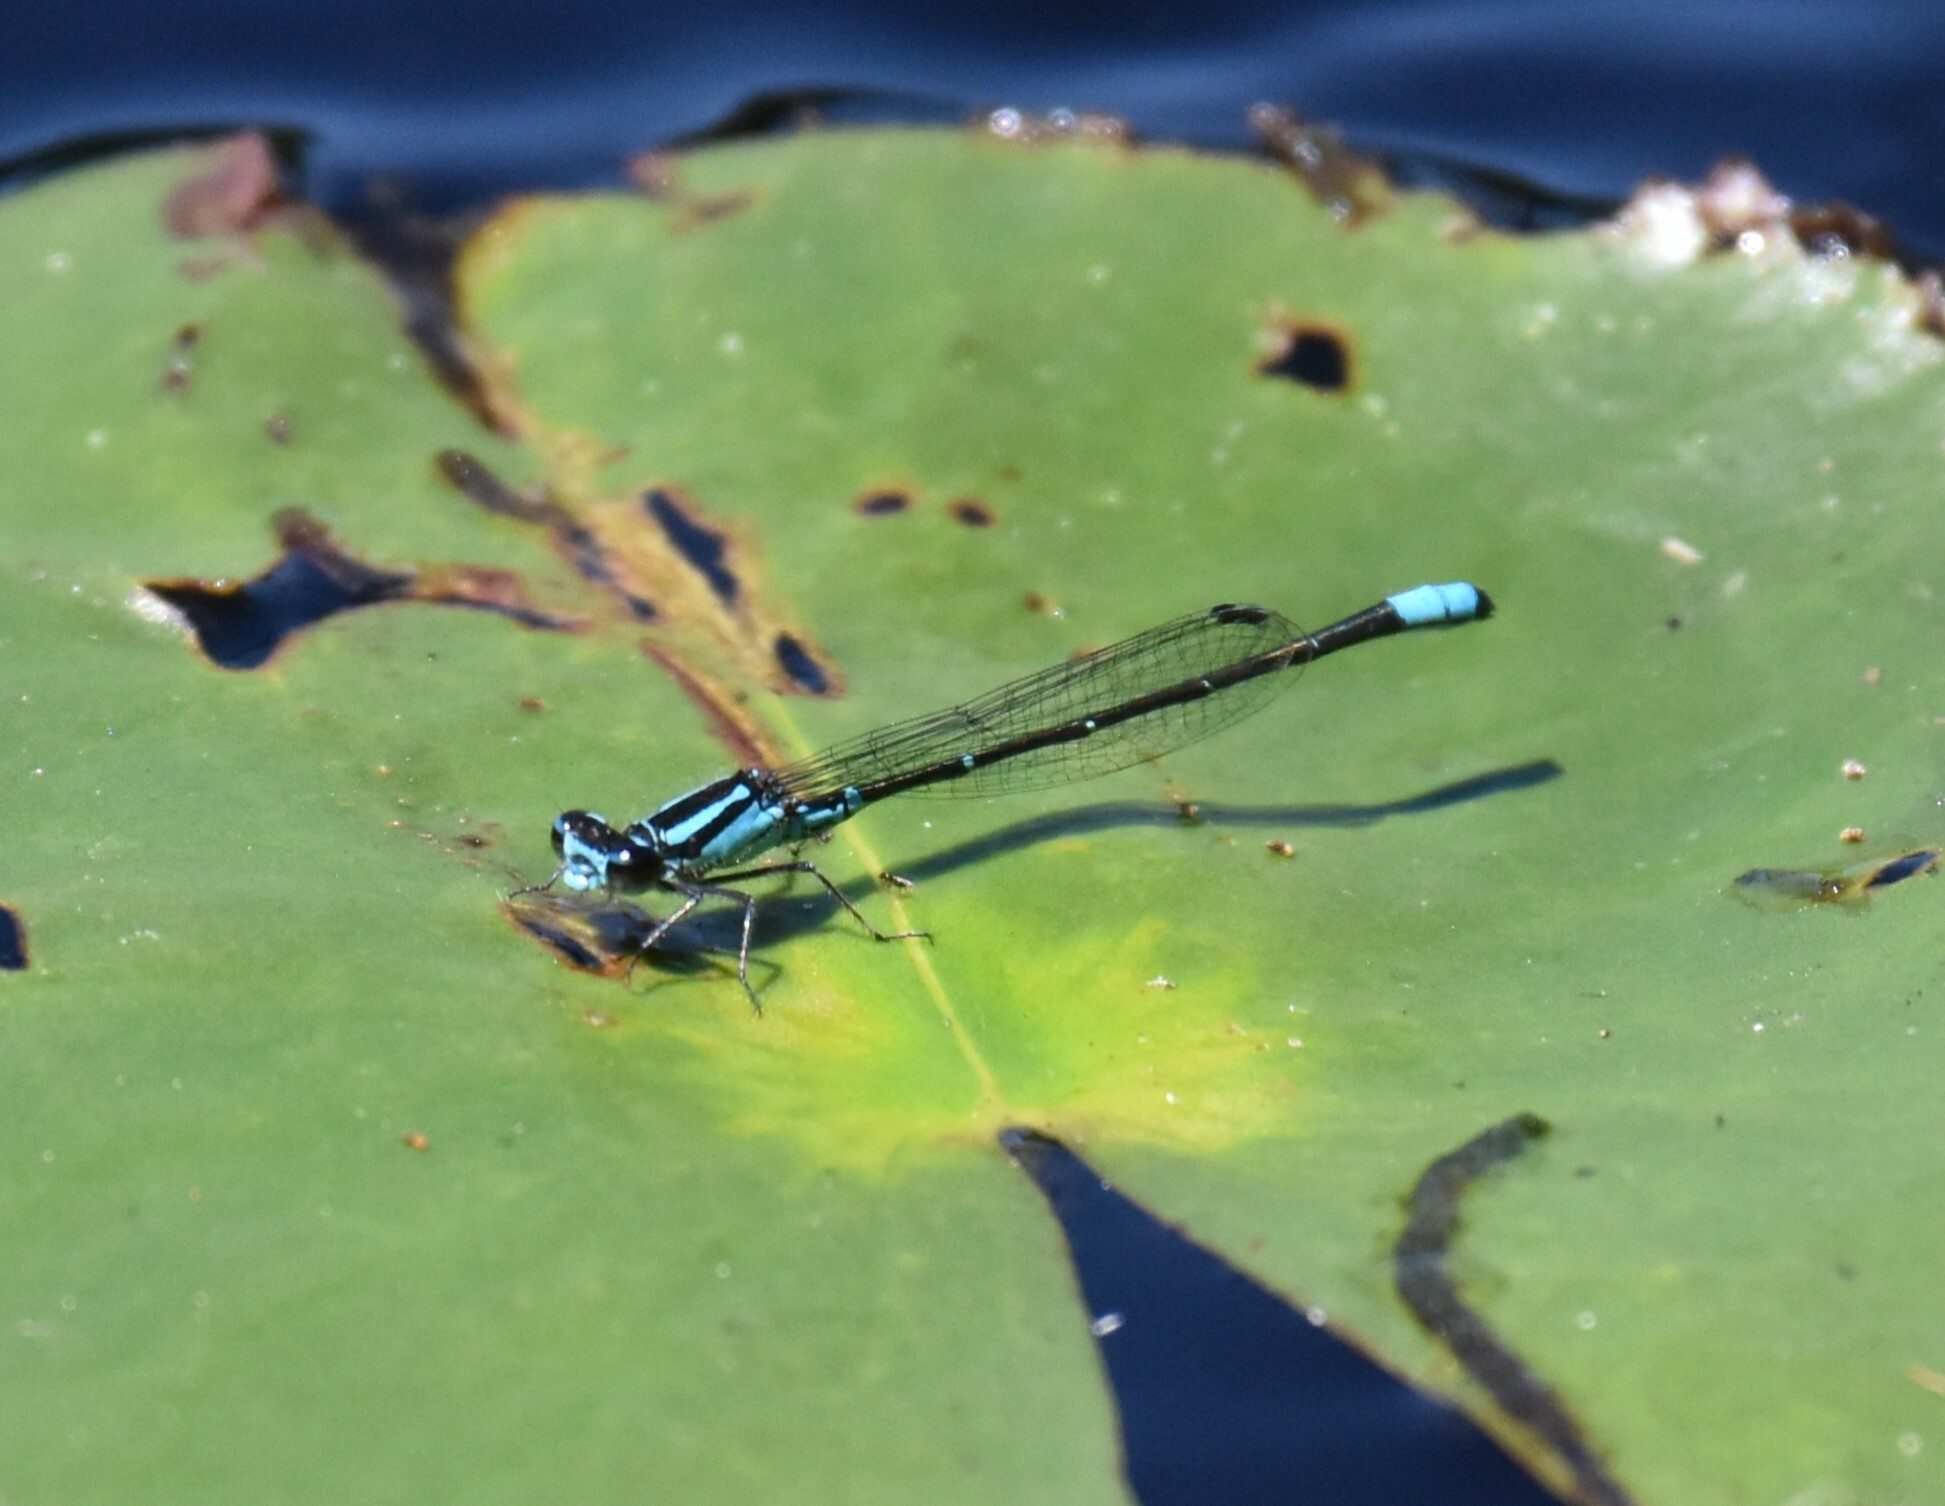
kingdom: Animalia
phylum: Arthropoda
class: Insecta
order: Odonata
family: Coenagrionidae
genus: Enallagma
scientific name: Enallagma geminatum
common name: Skimming bluet
